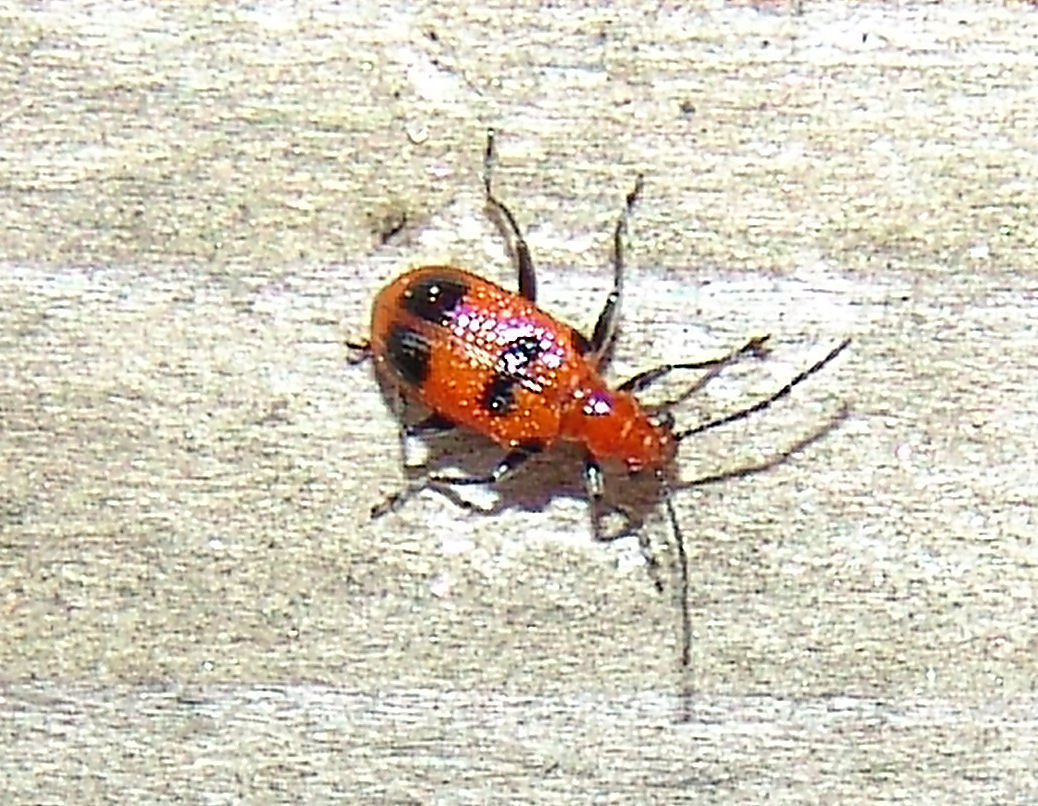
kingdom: Animalia
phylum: Arthropoda
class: Insecta
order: Coleoptera
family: Chrysomelidae
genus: Neolema
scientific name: Neolema sexpunctata
